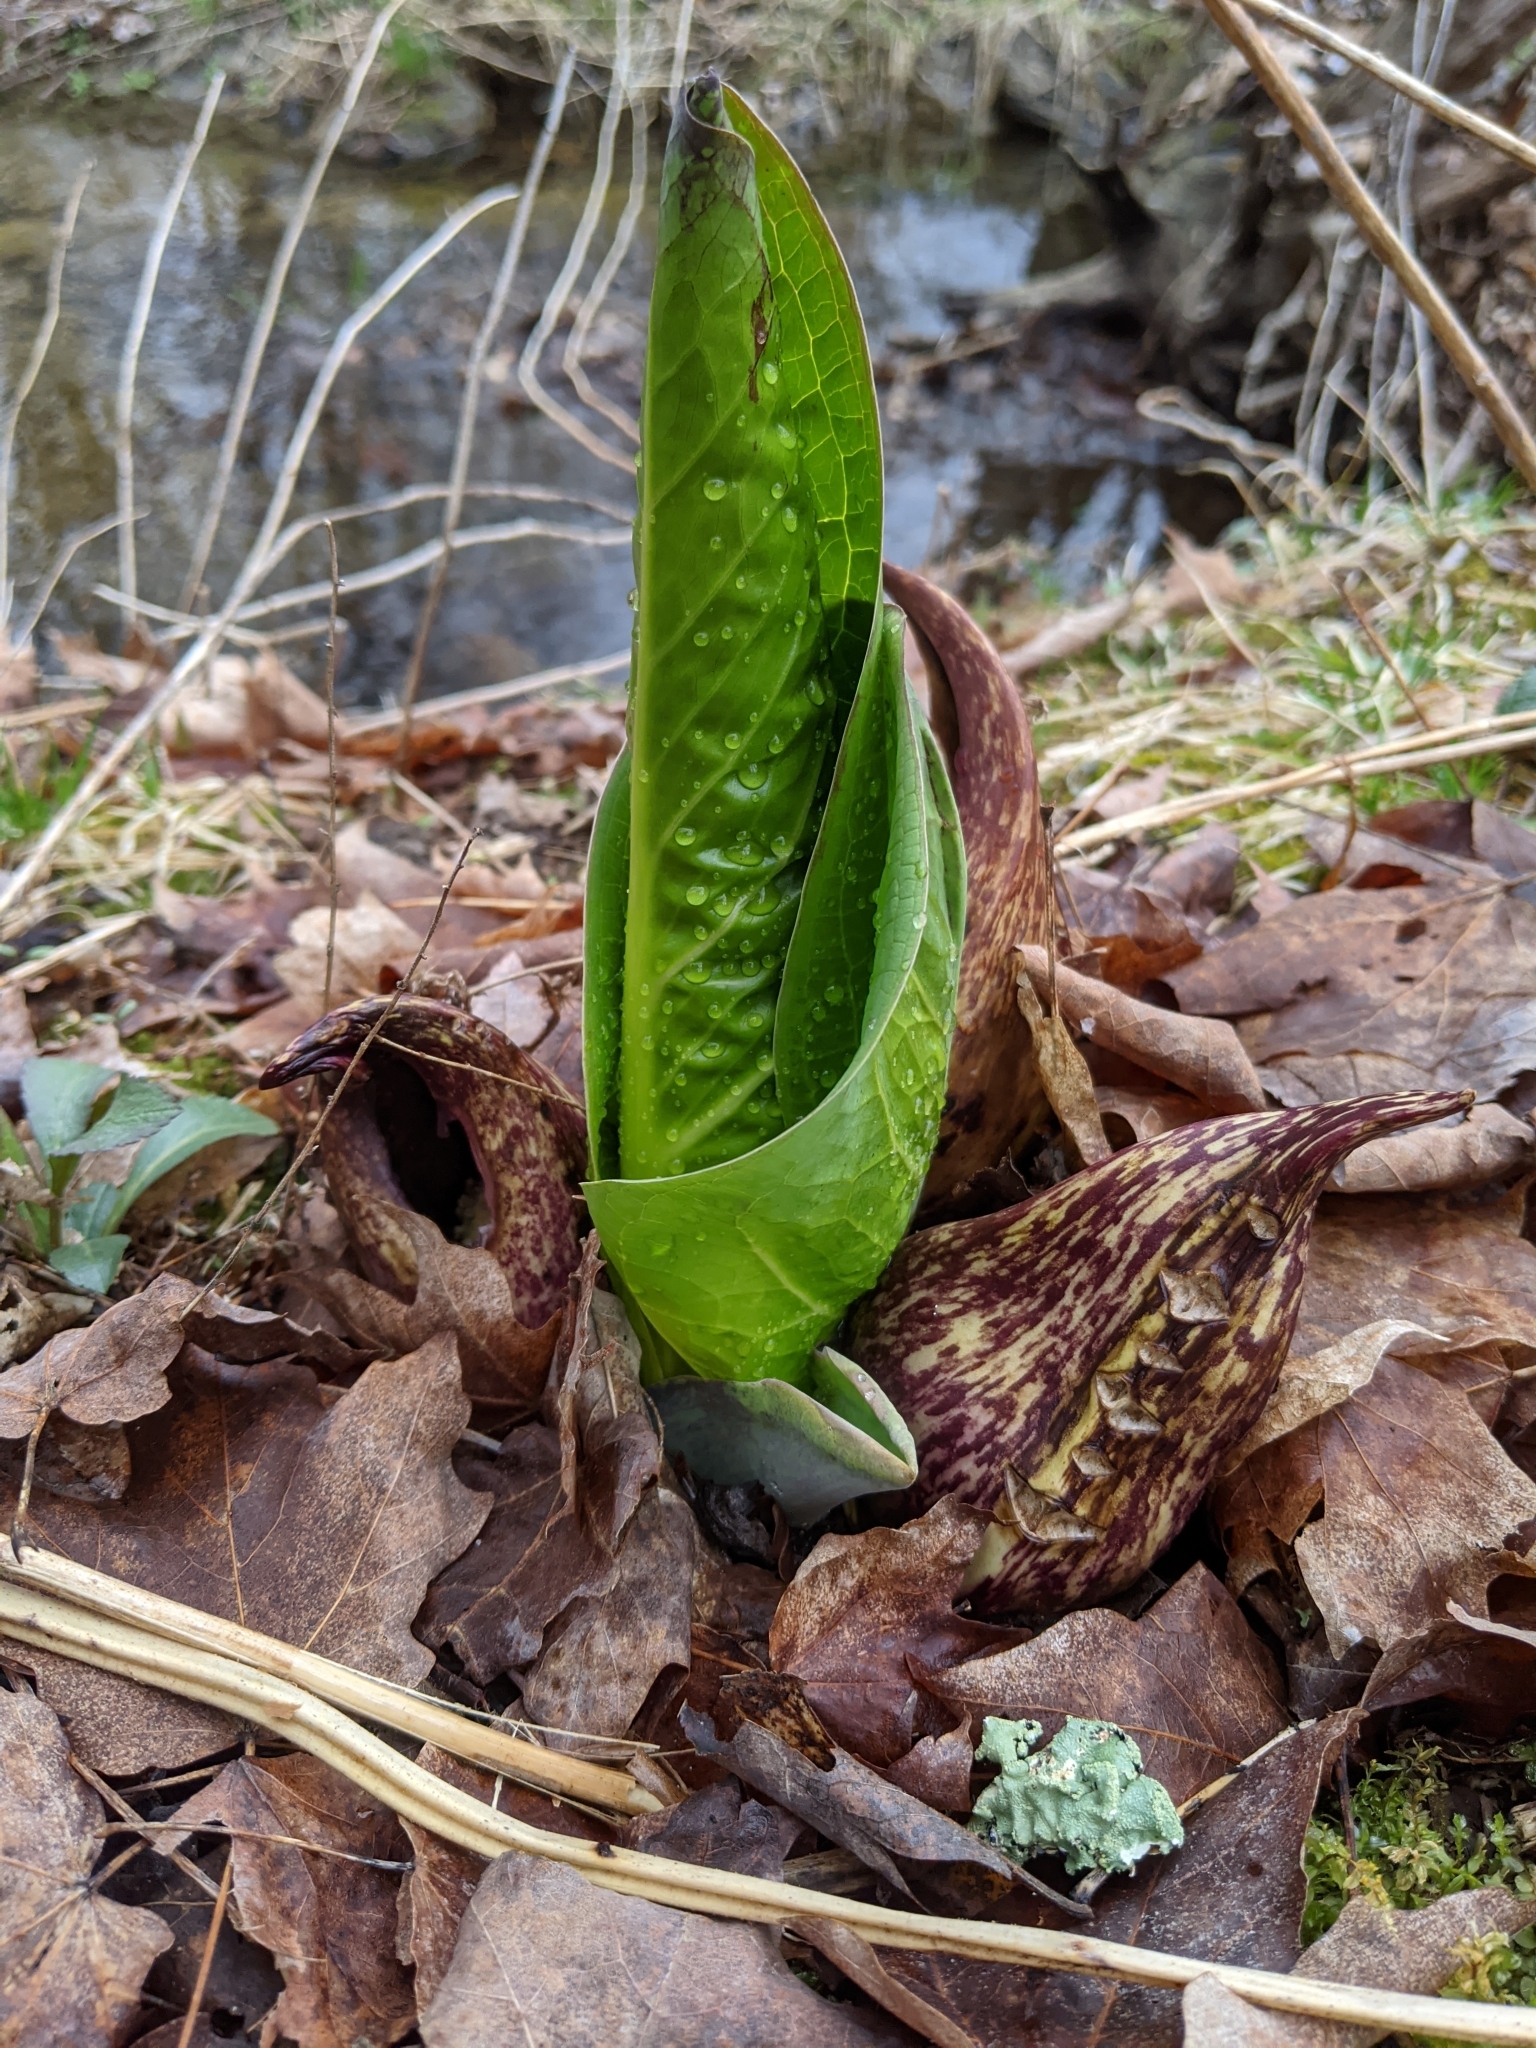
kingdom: Plantae
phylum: Tracheophyta
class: Liliopsida
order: Alismatales
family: Araceae
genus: Symplocarpus
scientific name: Symplocarpus foetidus
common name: Eastern skunk cabbage
